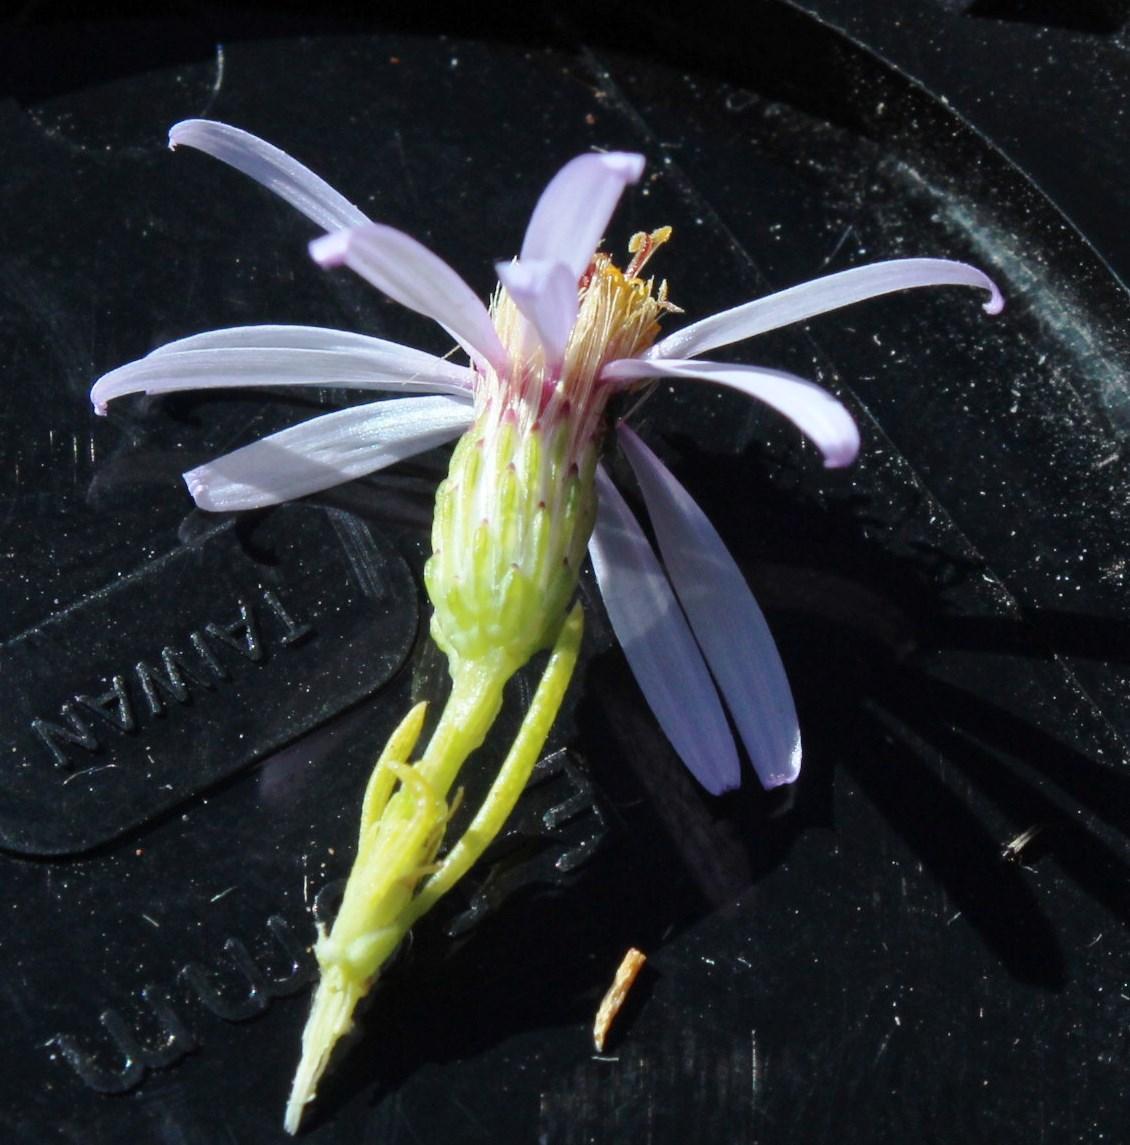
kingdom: Plantae
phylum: Tracheophyta
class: Magnoliopsida
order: Asterales
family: Asteraceae
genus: Felicia
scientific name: Felicia filifolia
